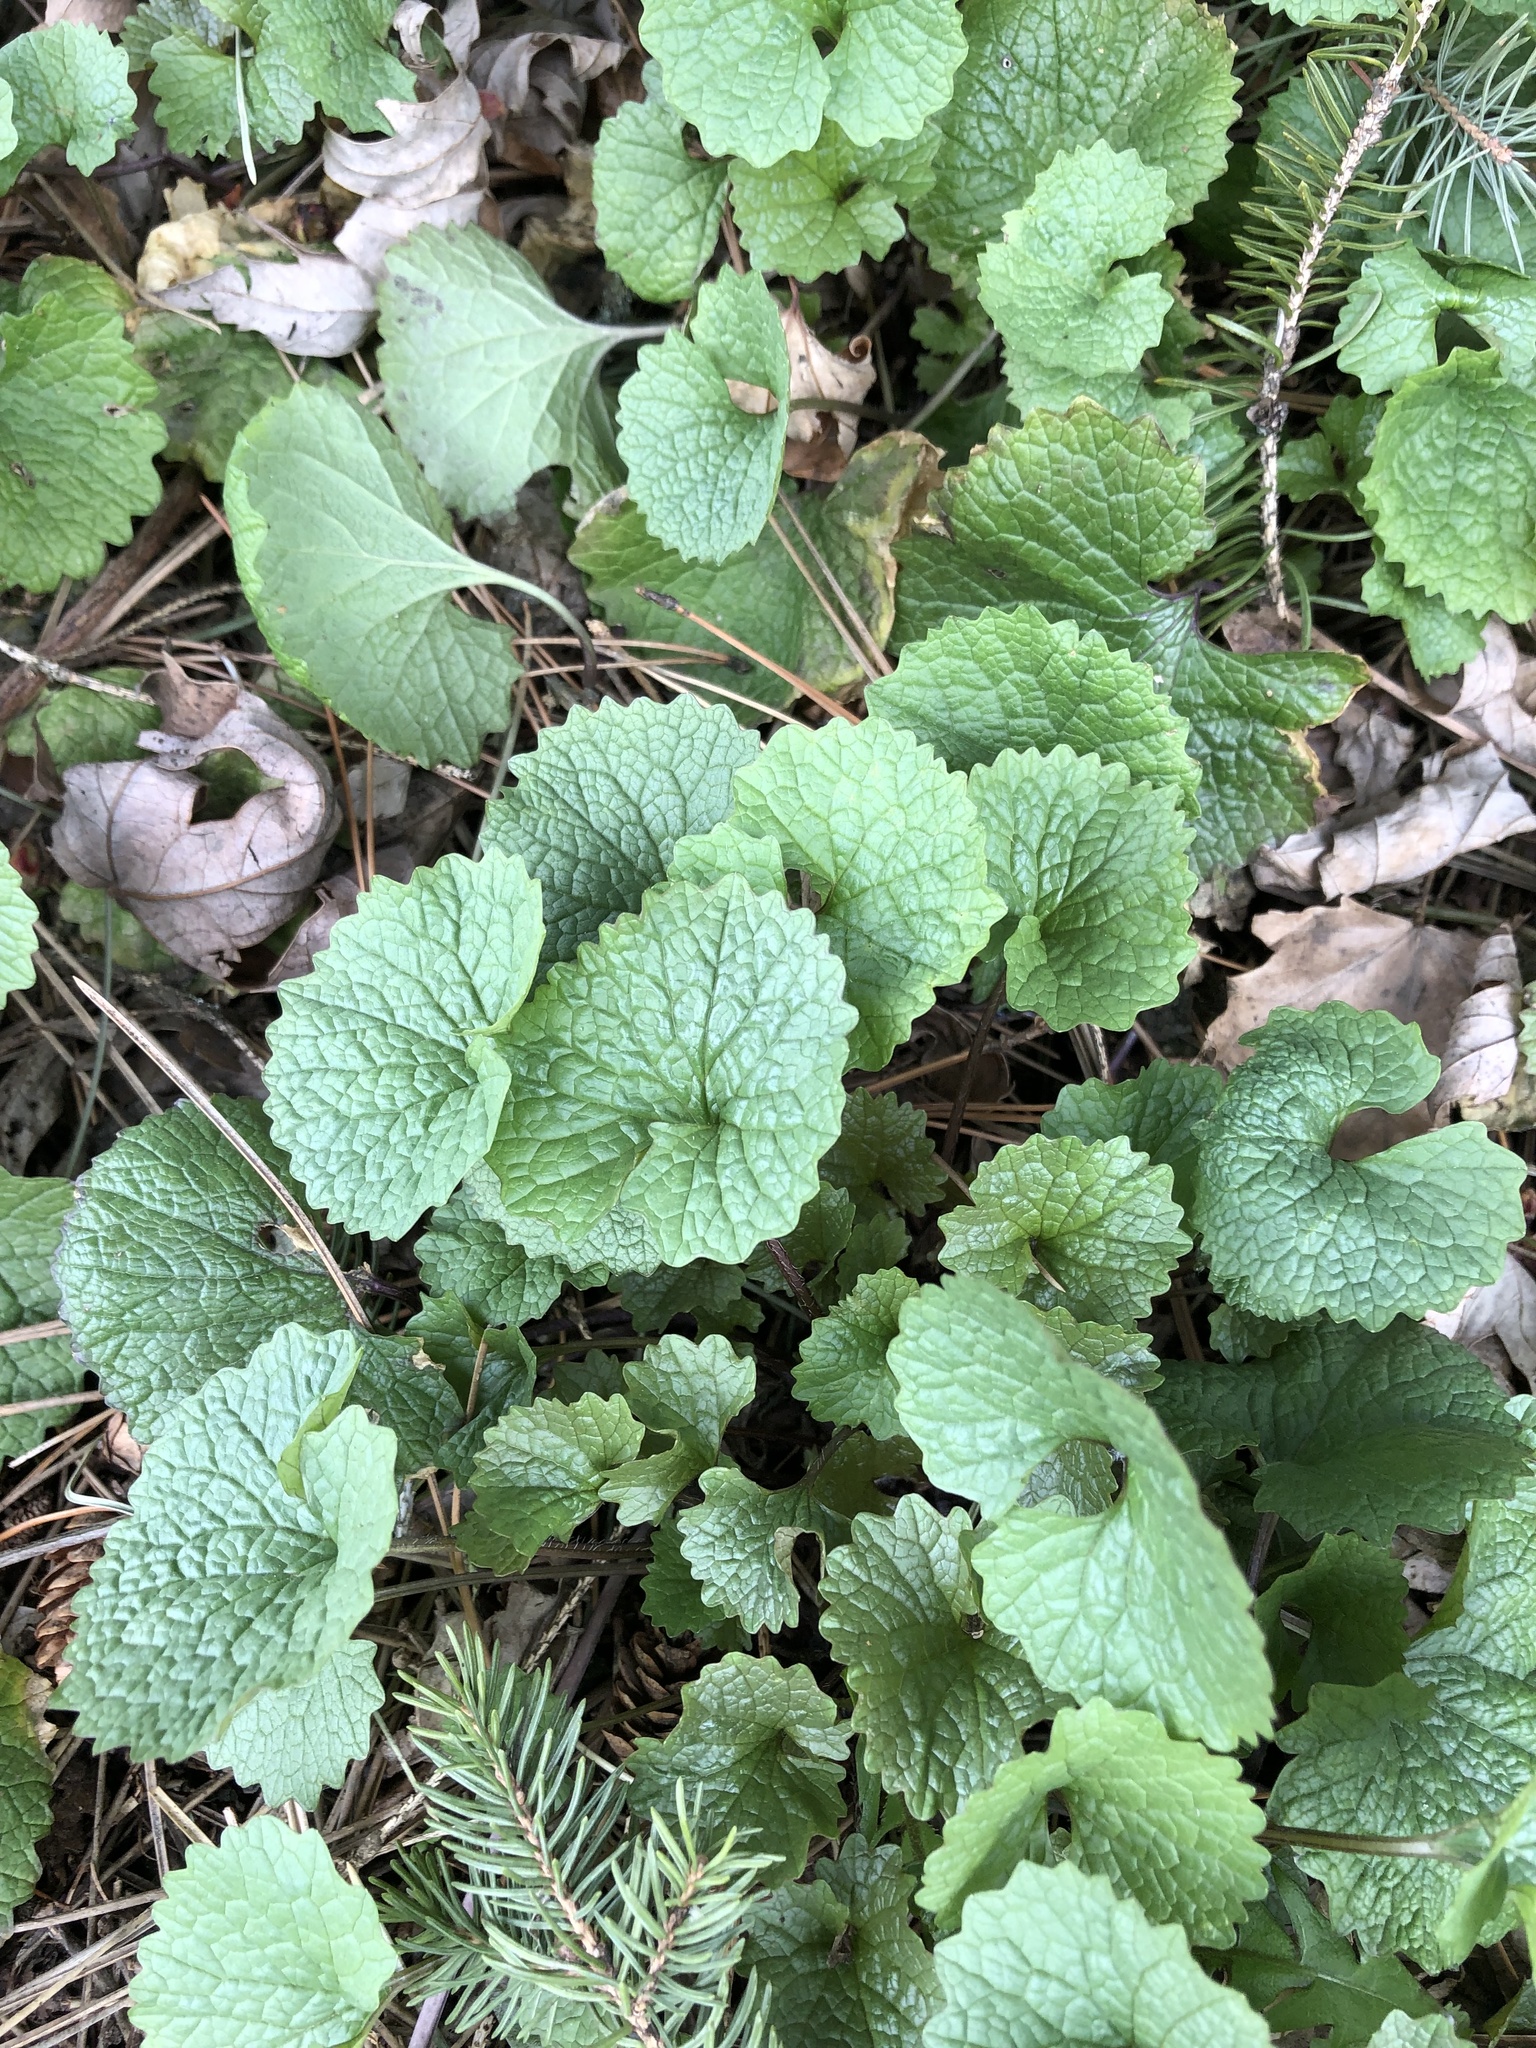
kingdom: Plantae
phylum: Tracheophyta
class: Magnoliopsida
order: Brassicales
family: Brassicaceae
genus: Alliaria
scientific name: Alliaria petiolata
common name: Garlic mustard
